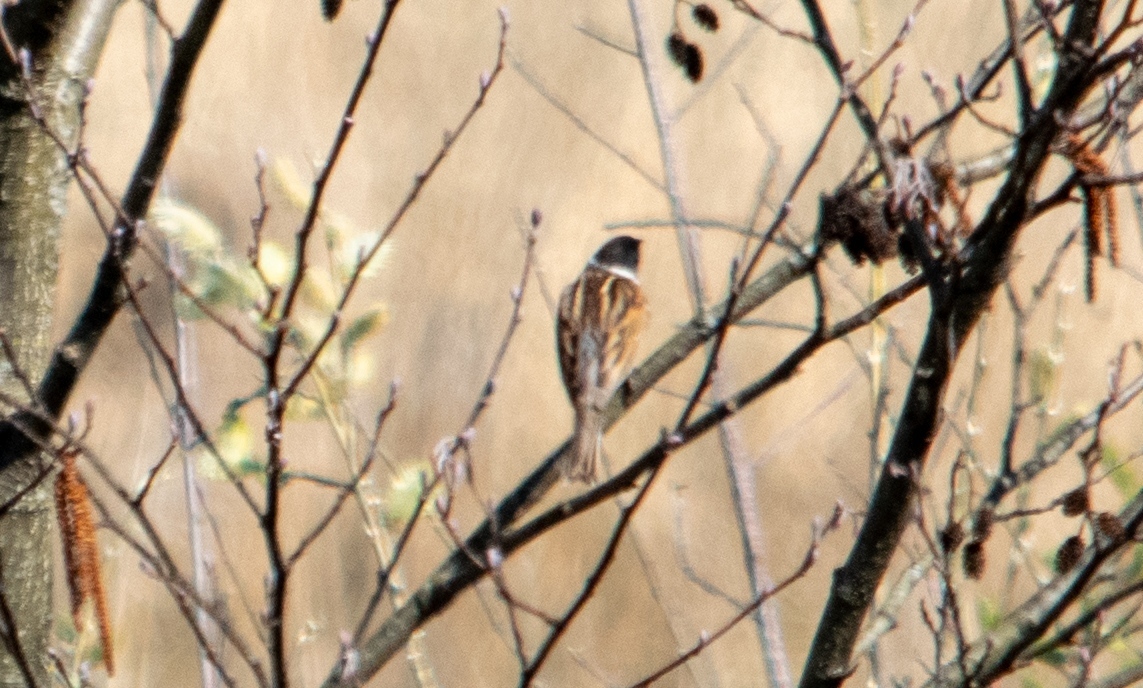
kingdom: Animalia
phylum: Chordata
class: Aves
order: Passeriformes
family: Emberizidae
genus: Emberiza
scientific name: Emberiza schoeniclus
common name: Reed bunting
